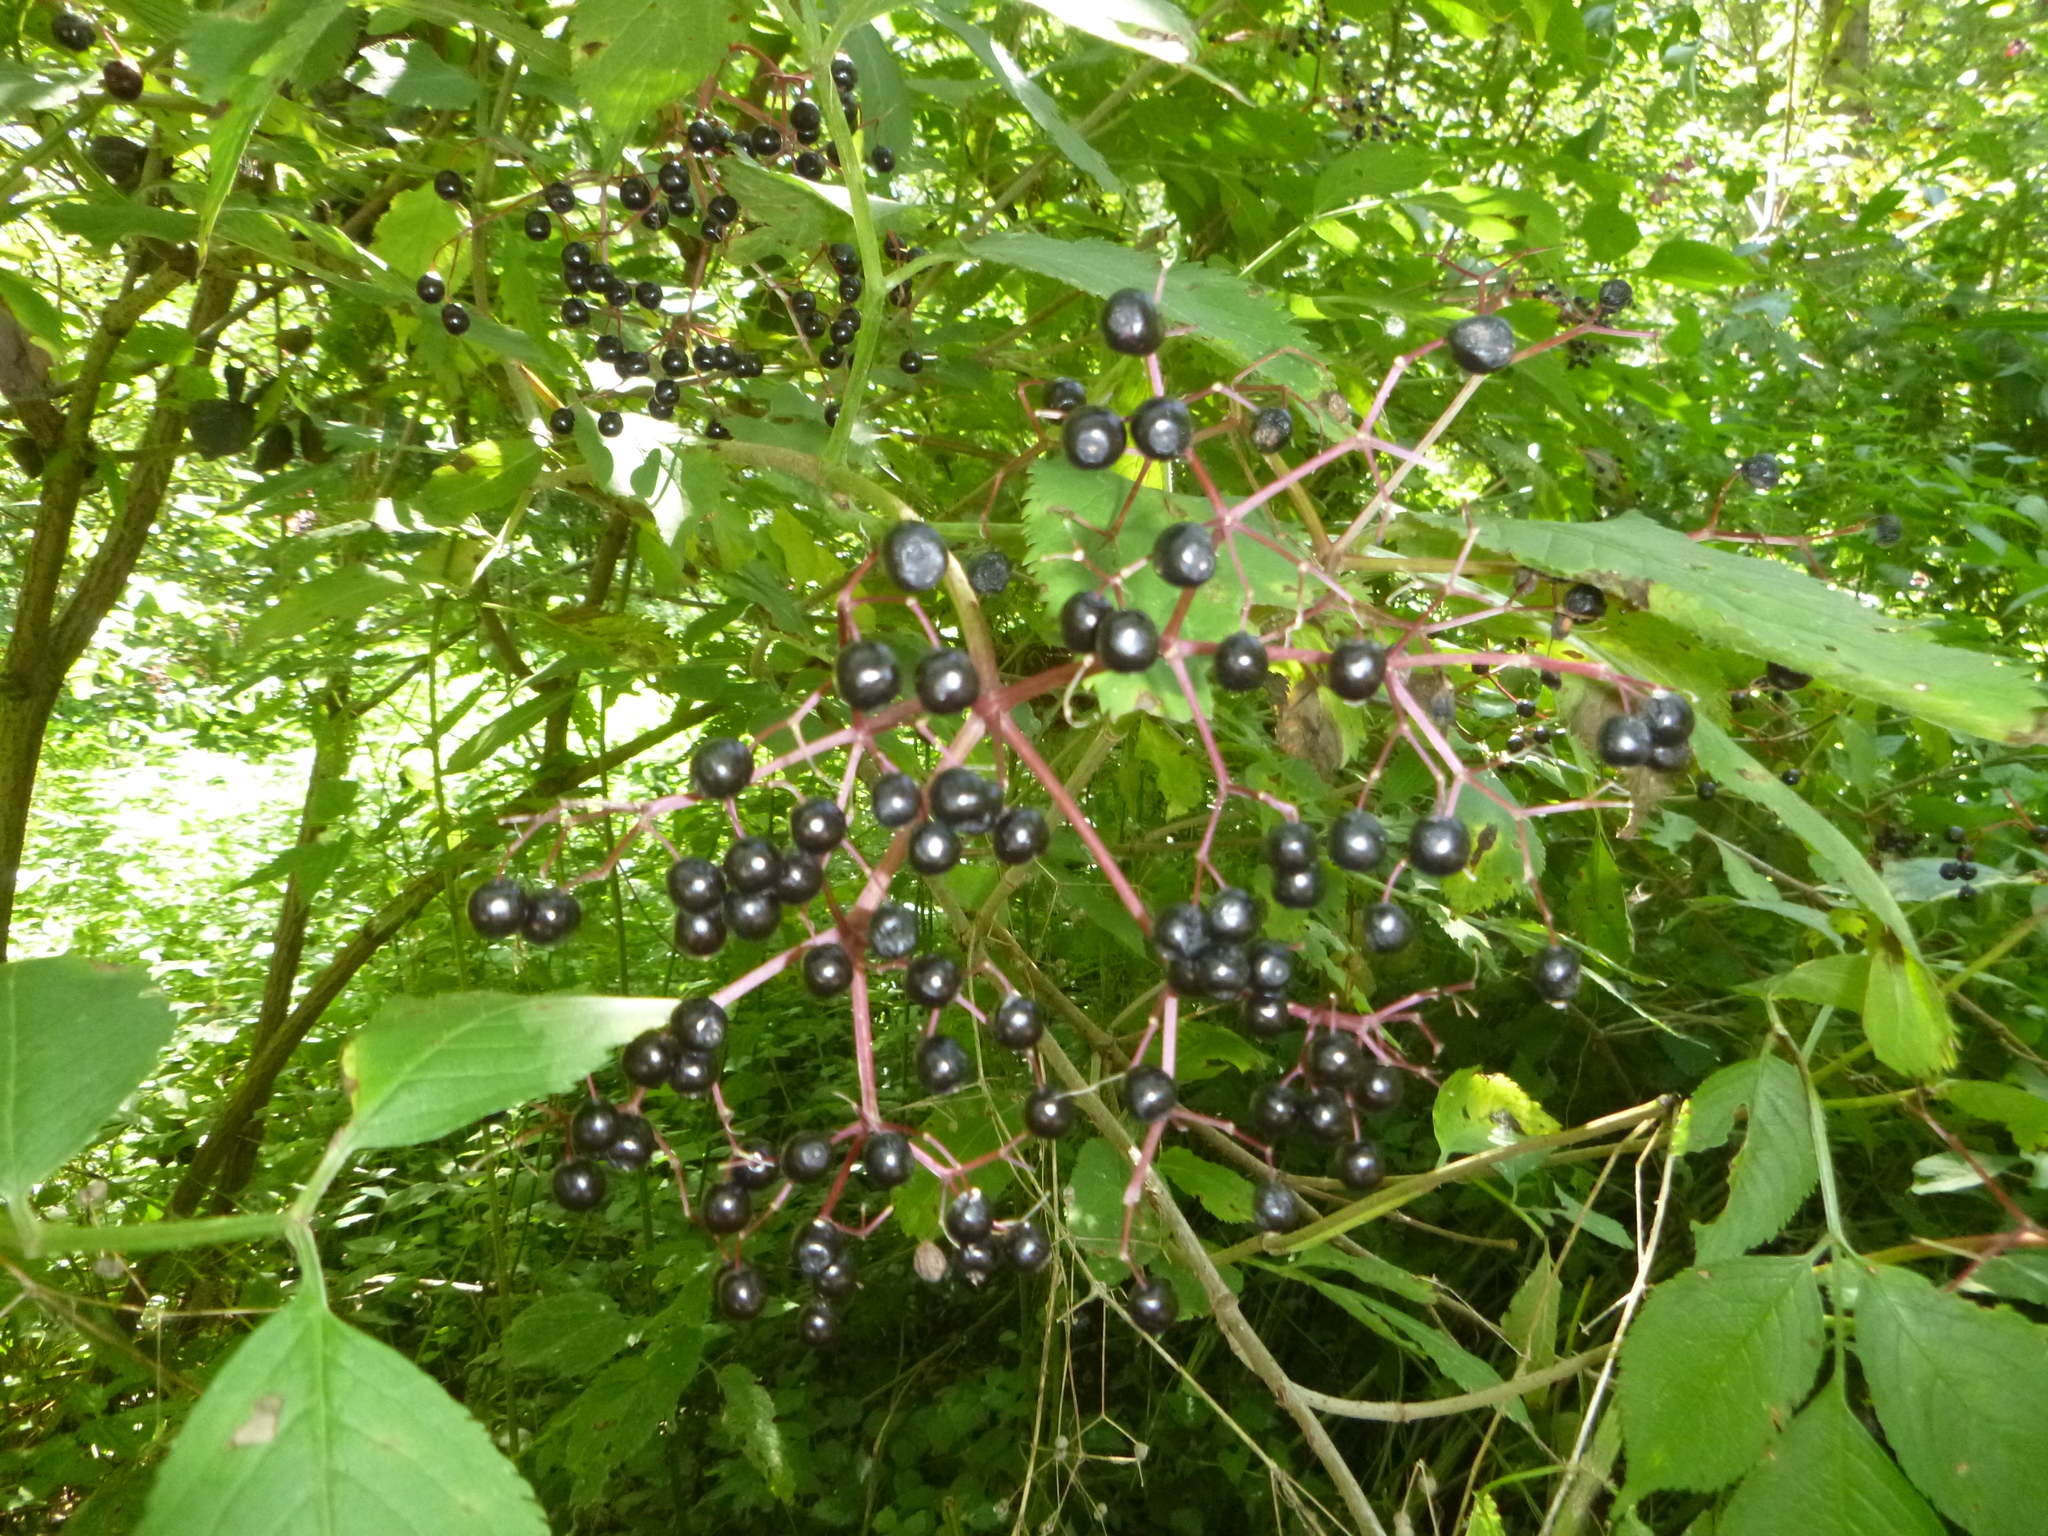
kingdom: Plantae
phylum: Tracheophyta
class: Magnoliopsida
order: Dipsacales
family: Viburnaceae
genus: Sambucus
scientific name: Sambucus nigra
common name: Elder
